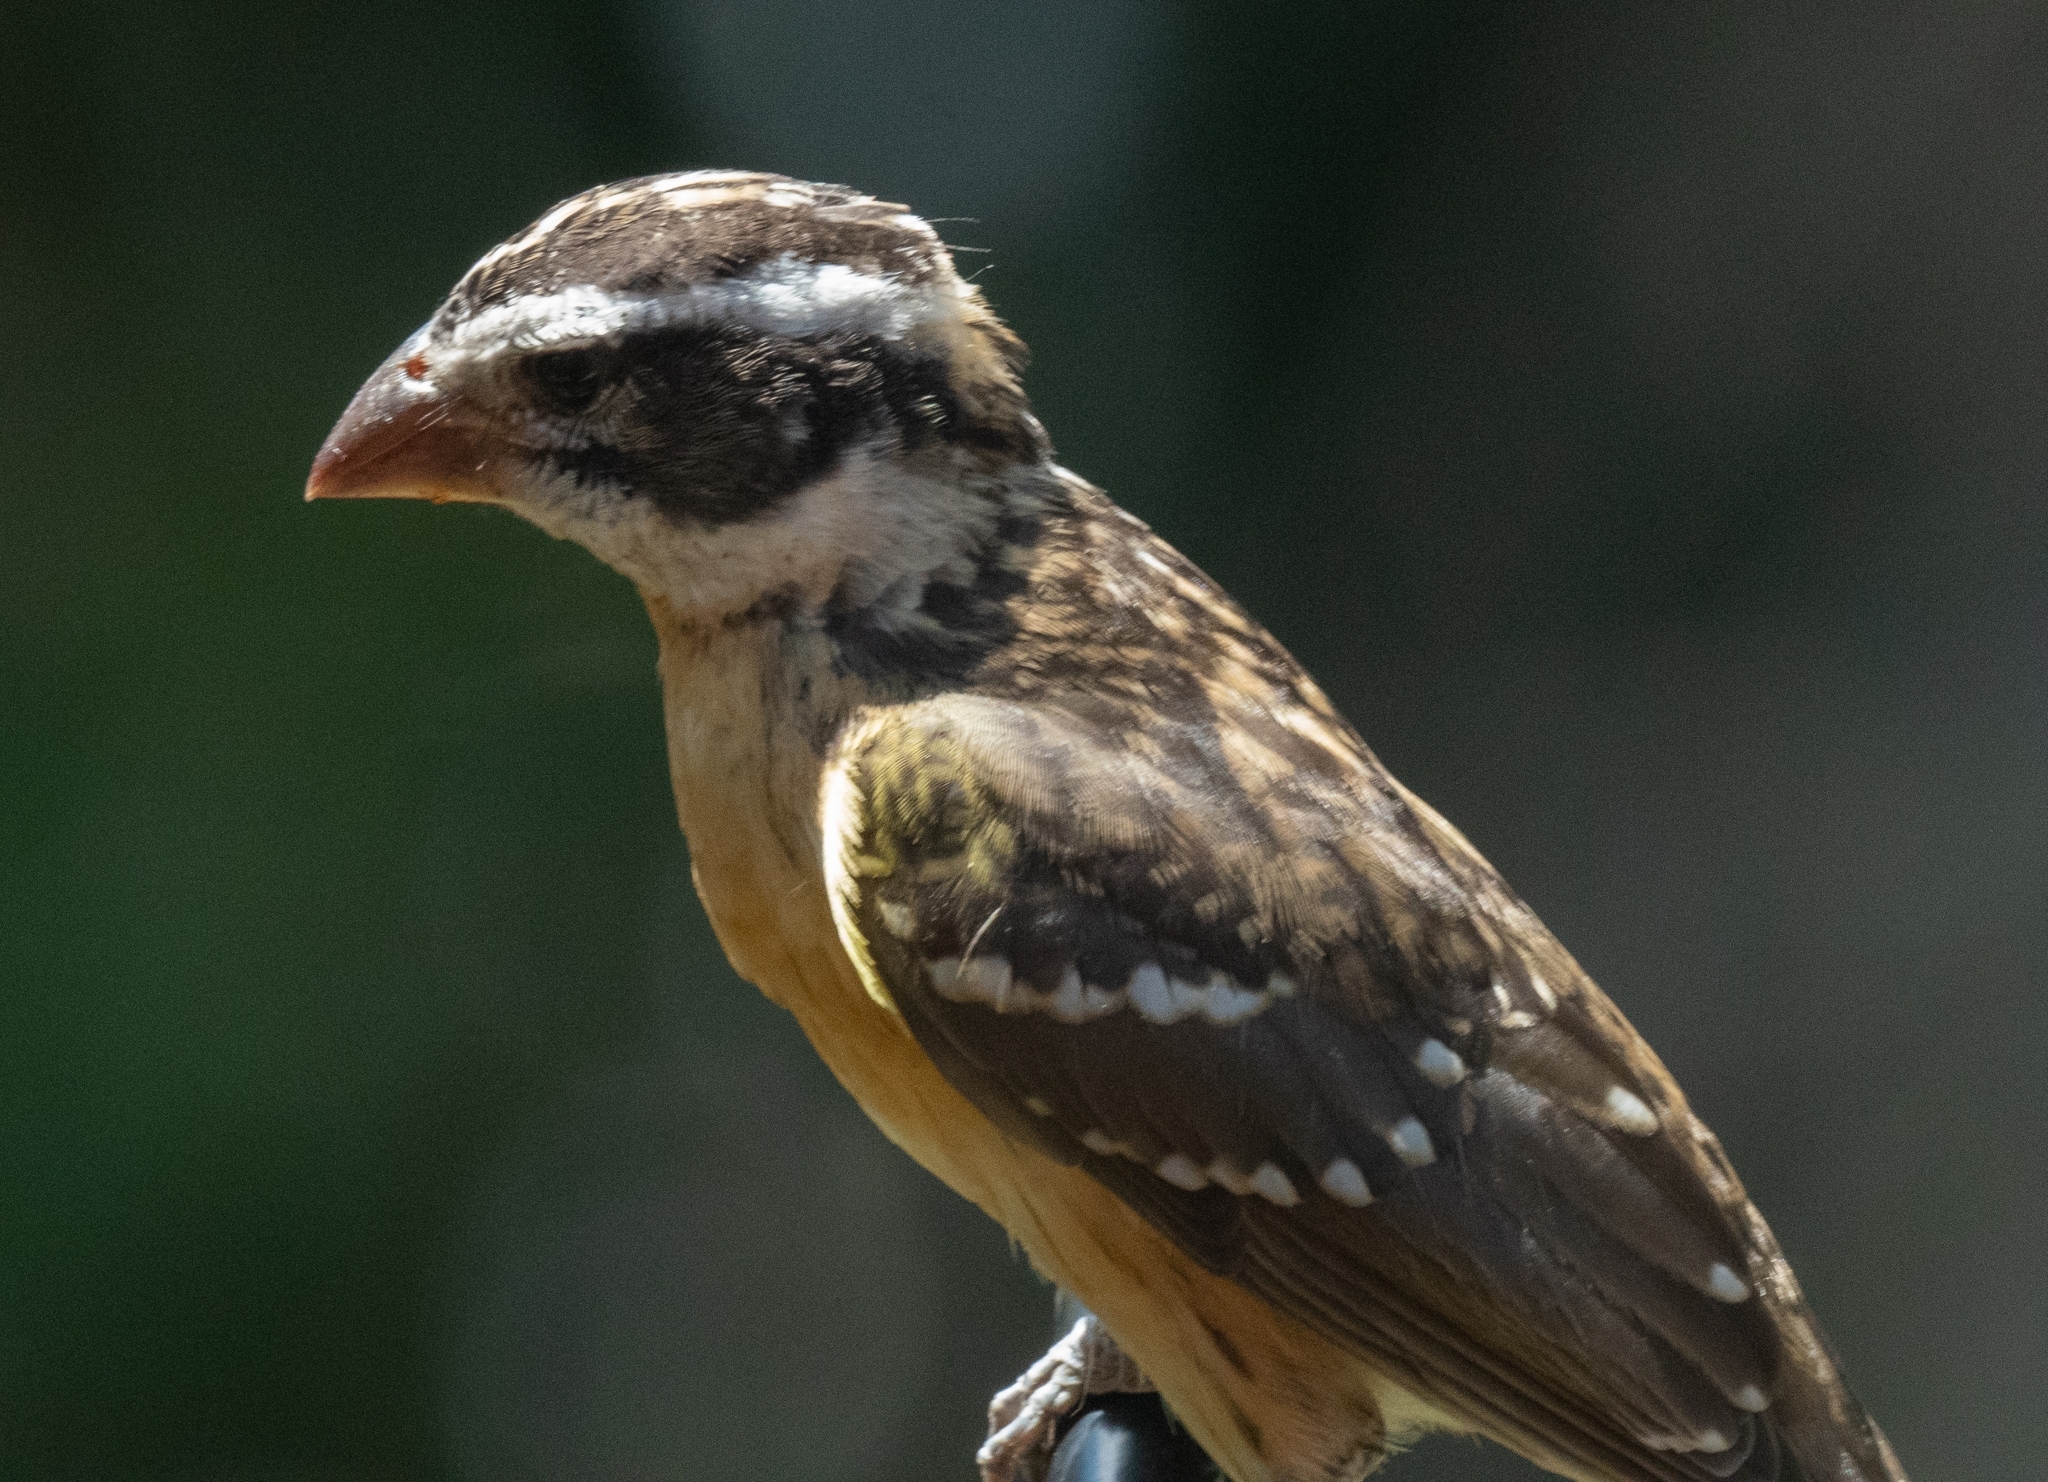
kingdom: Animalia
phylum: Chordata
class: Aves
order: Passeriformes
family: Cardinalidae
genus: Pheucticus
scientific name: Pheucticus melanocephalus
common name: Black-headed grosbeak
